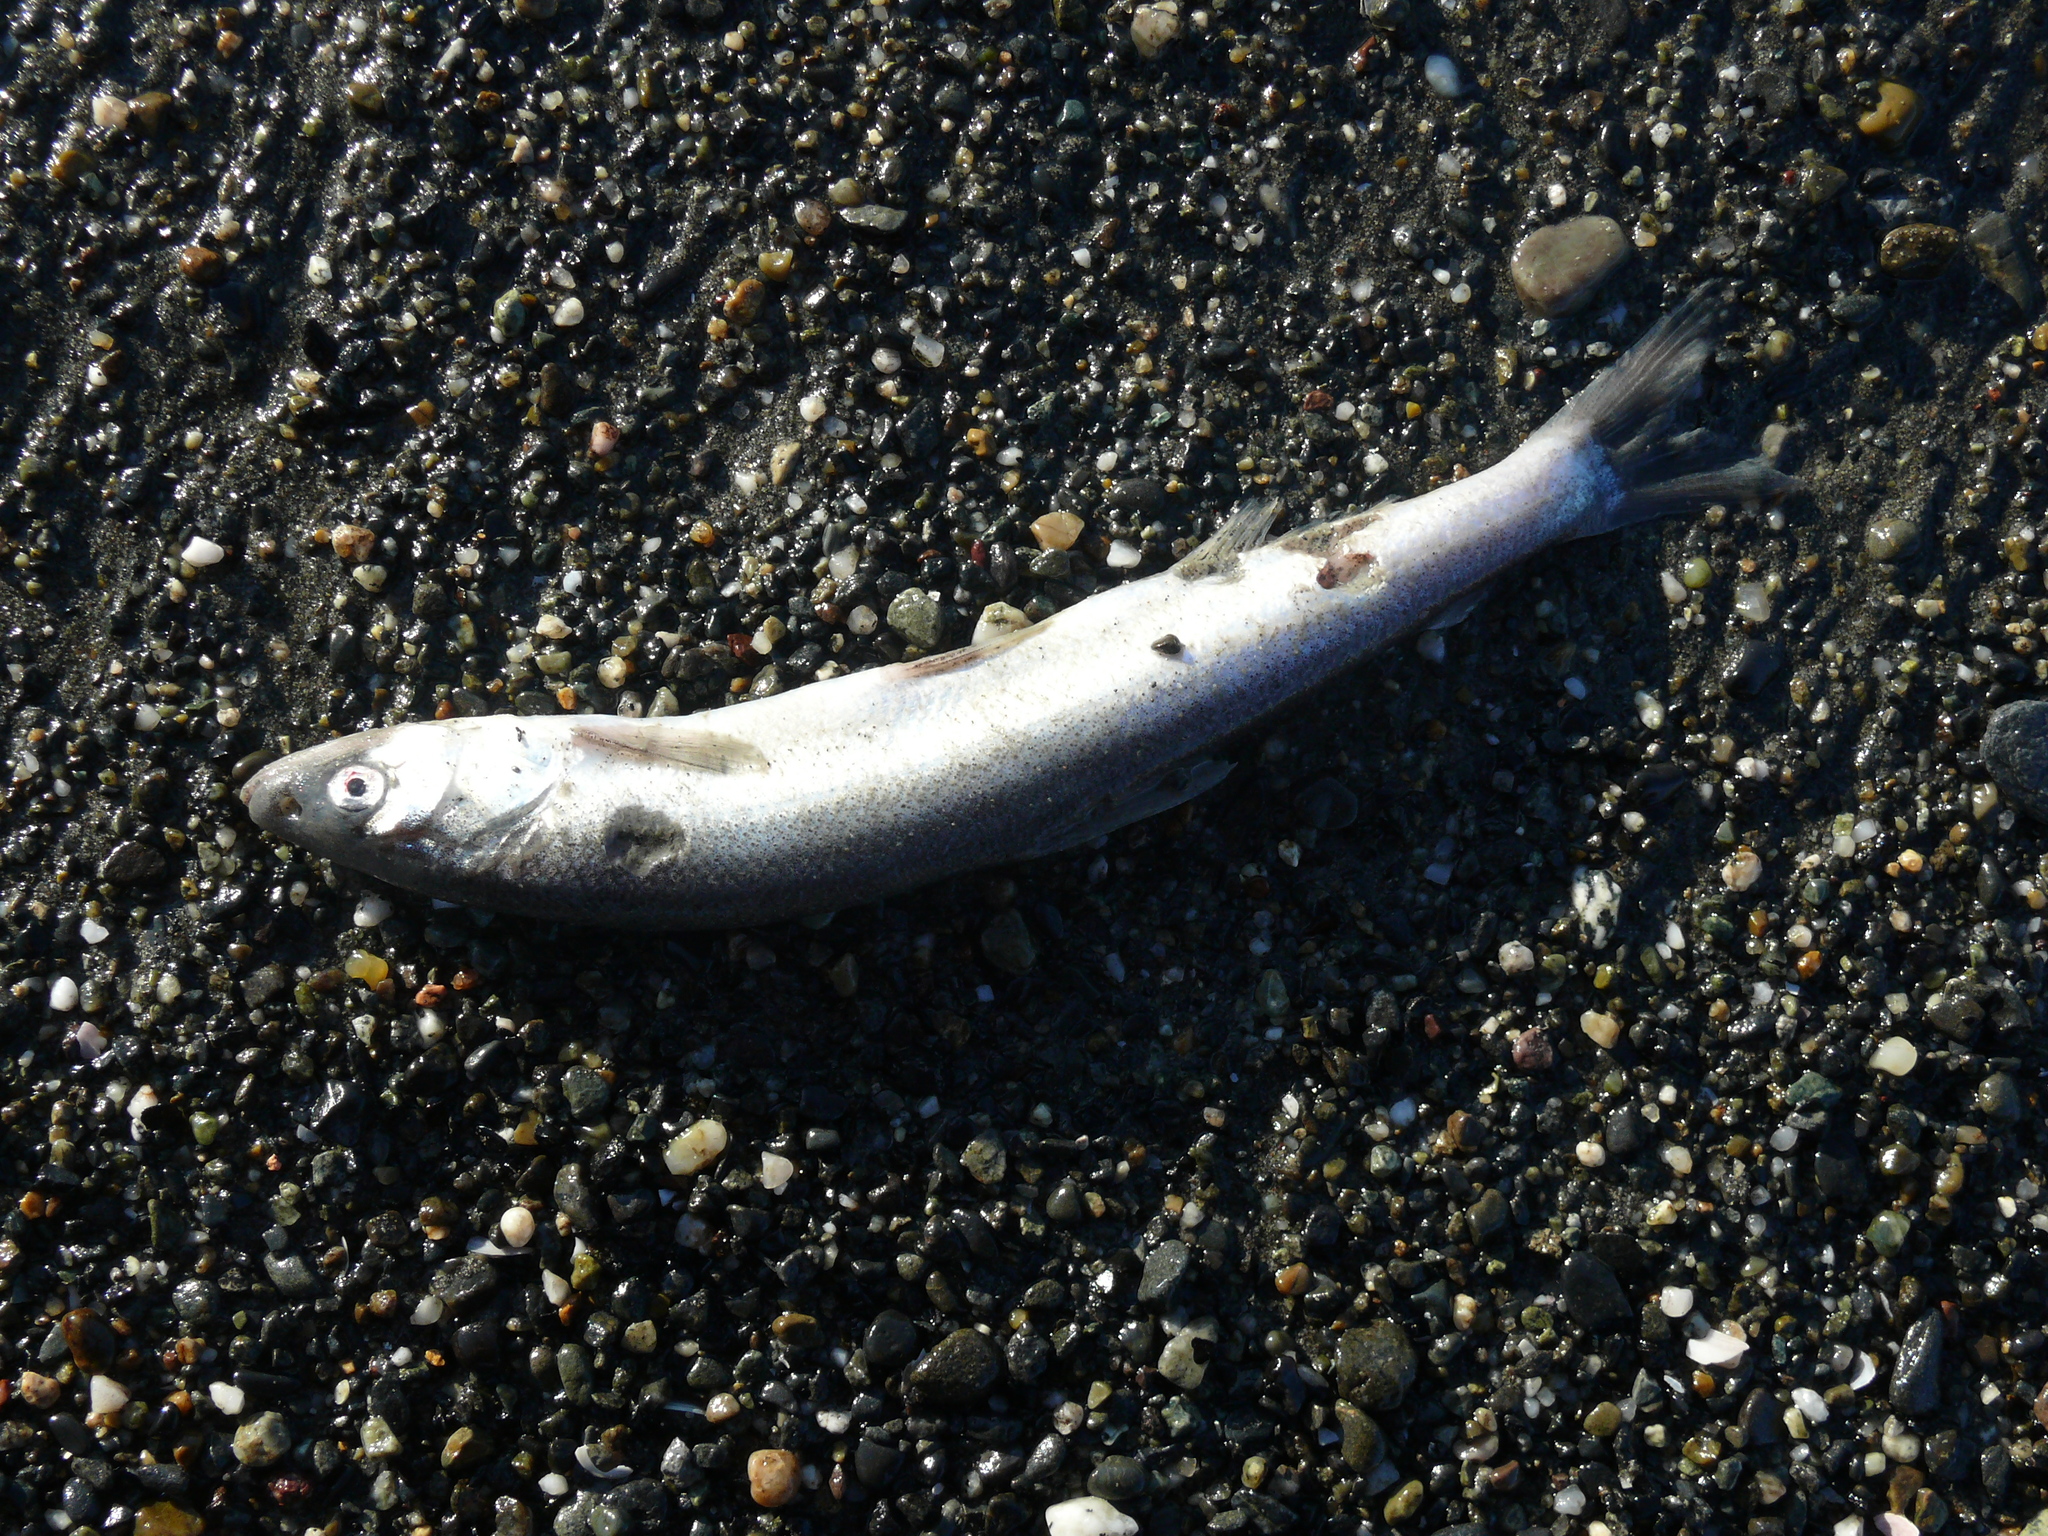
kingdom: Animalia
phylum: Chordata
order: Osmeriformes
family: Osmeridae
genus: Thaleichthys
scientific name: Thaleichthys pacificus
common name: Eulachon
